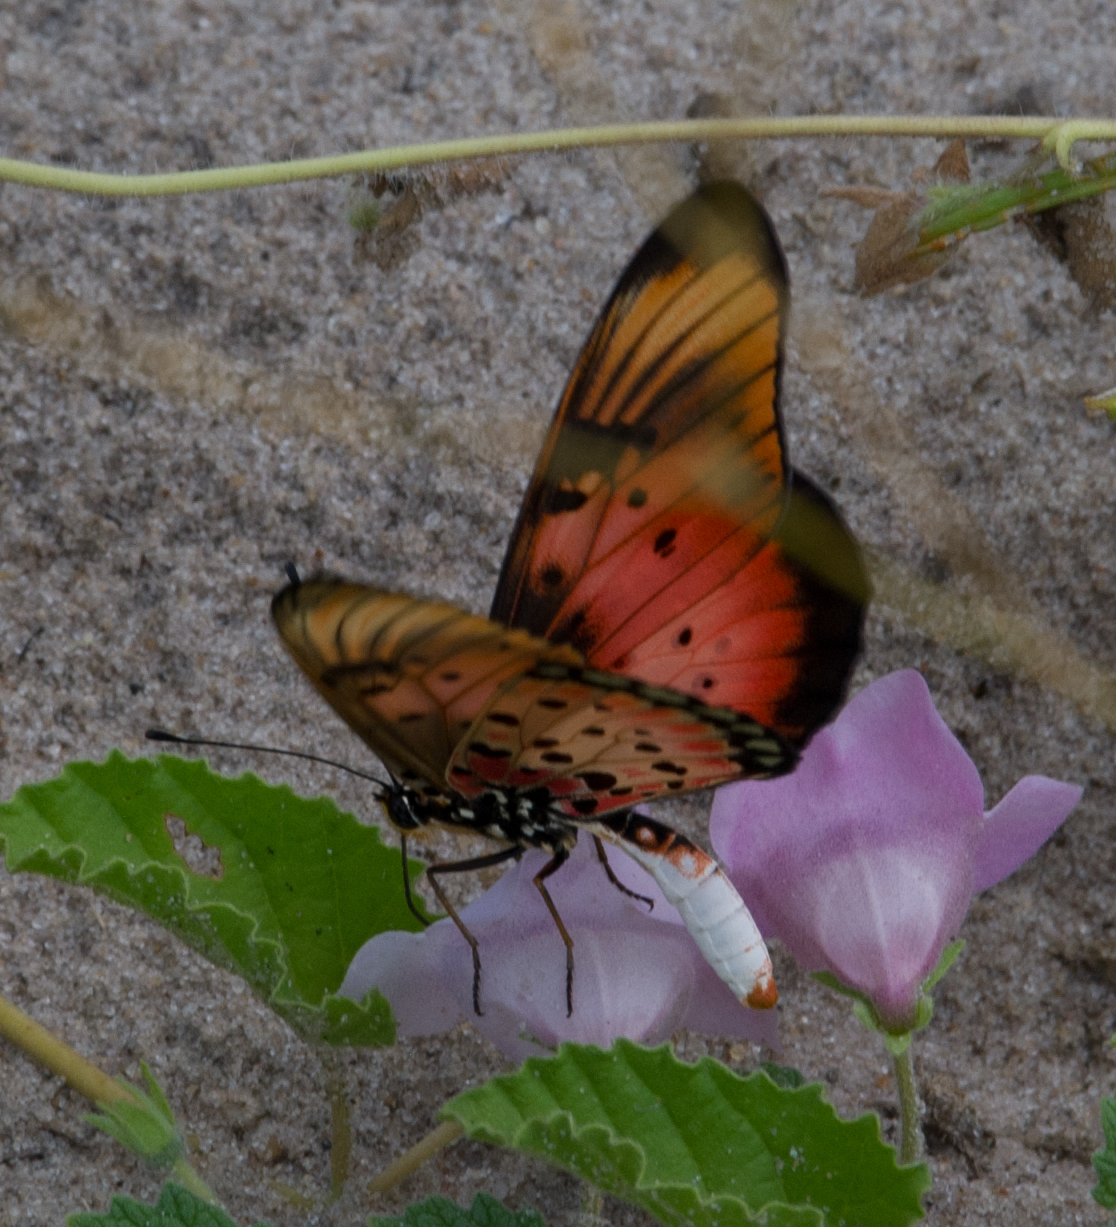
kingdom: Animalia
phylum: Arthropoda
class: Insecta
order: Lepidoptera
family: Nymphalidae
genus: Stephenia
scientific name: Stephenia
